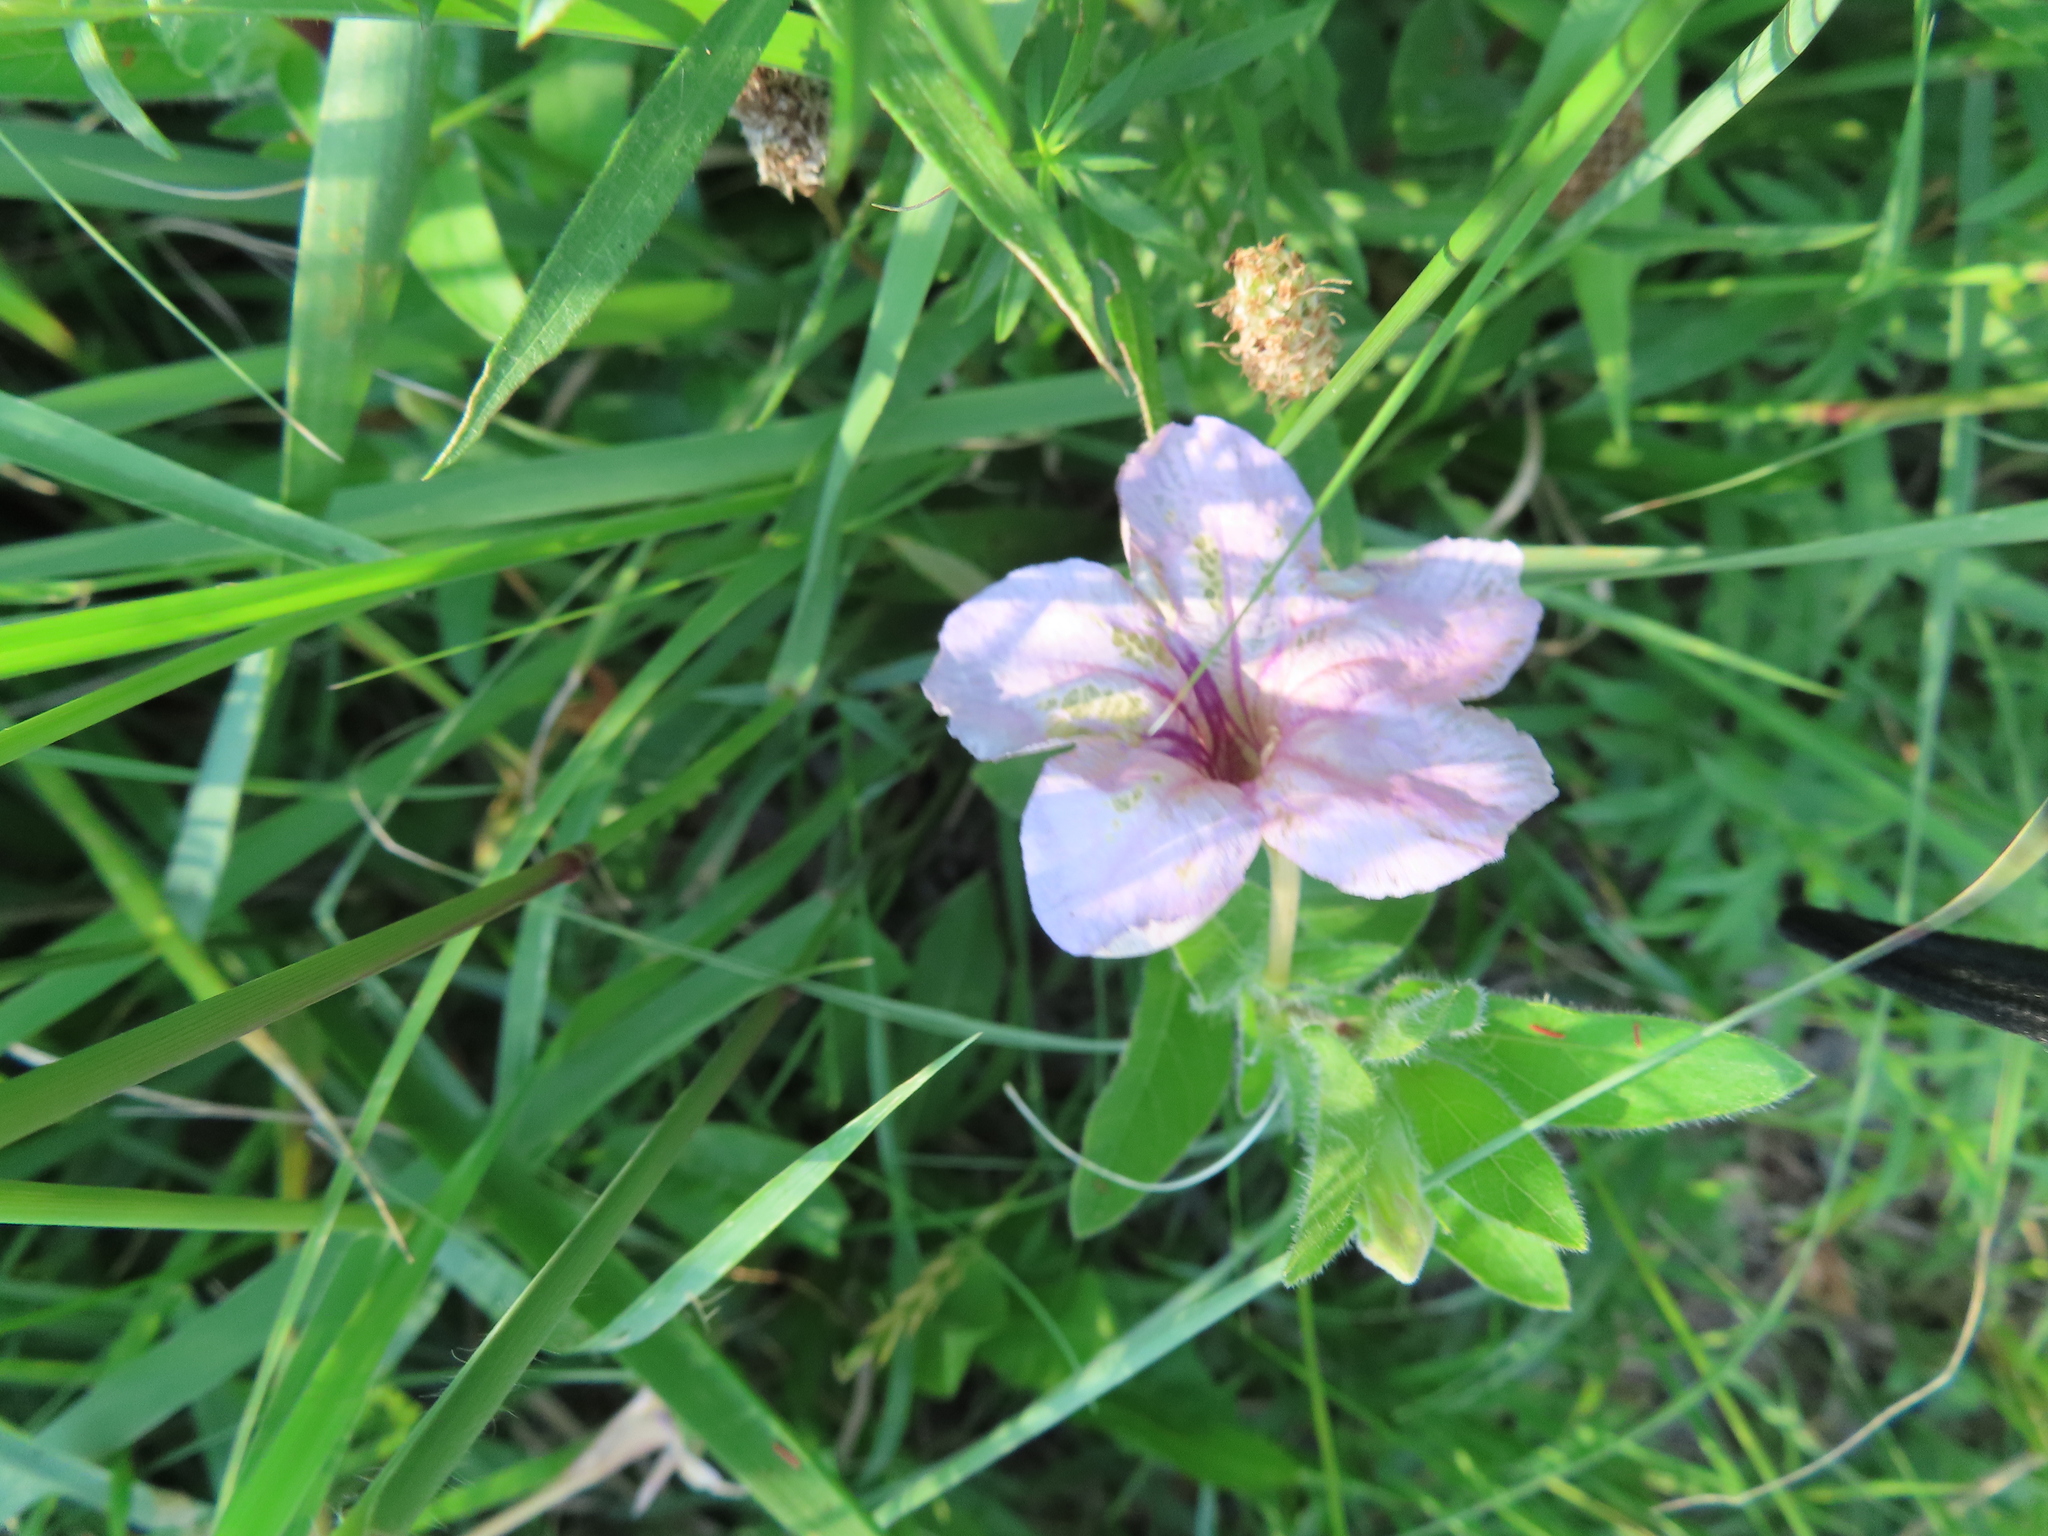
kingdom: Plantae
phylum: Tracheophyta
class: Magnoliopsida
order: Lamiales
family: Acanthaceae
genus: Ruellia
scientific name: Ruellia humilis
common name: Fringe-leaf ruellia
